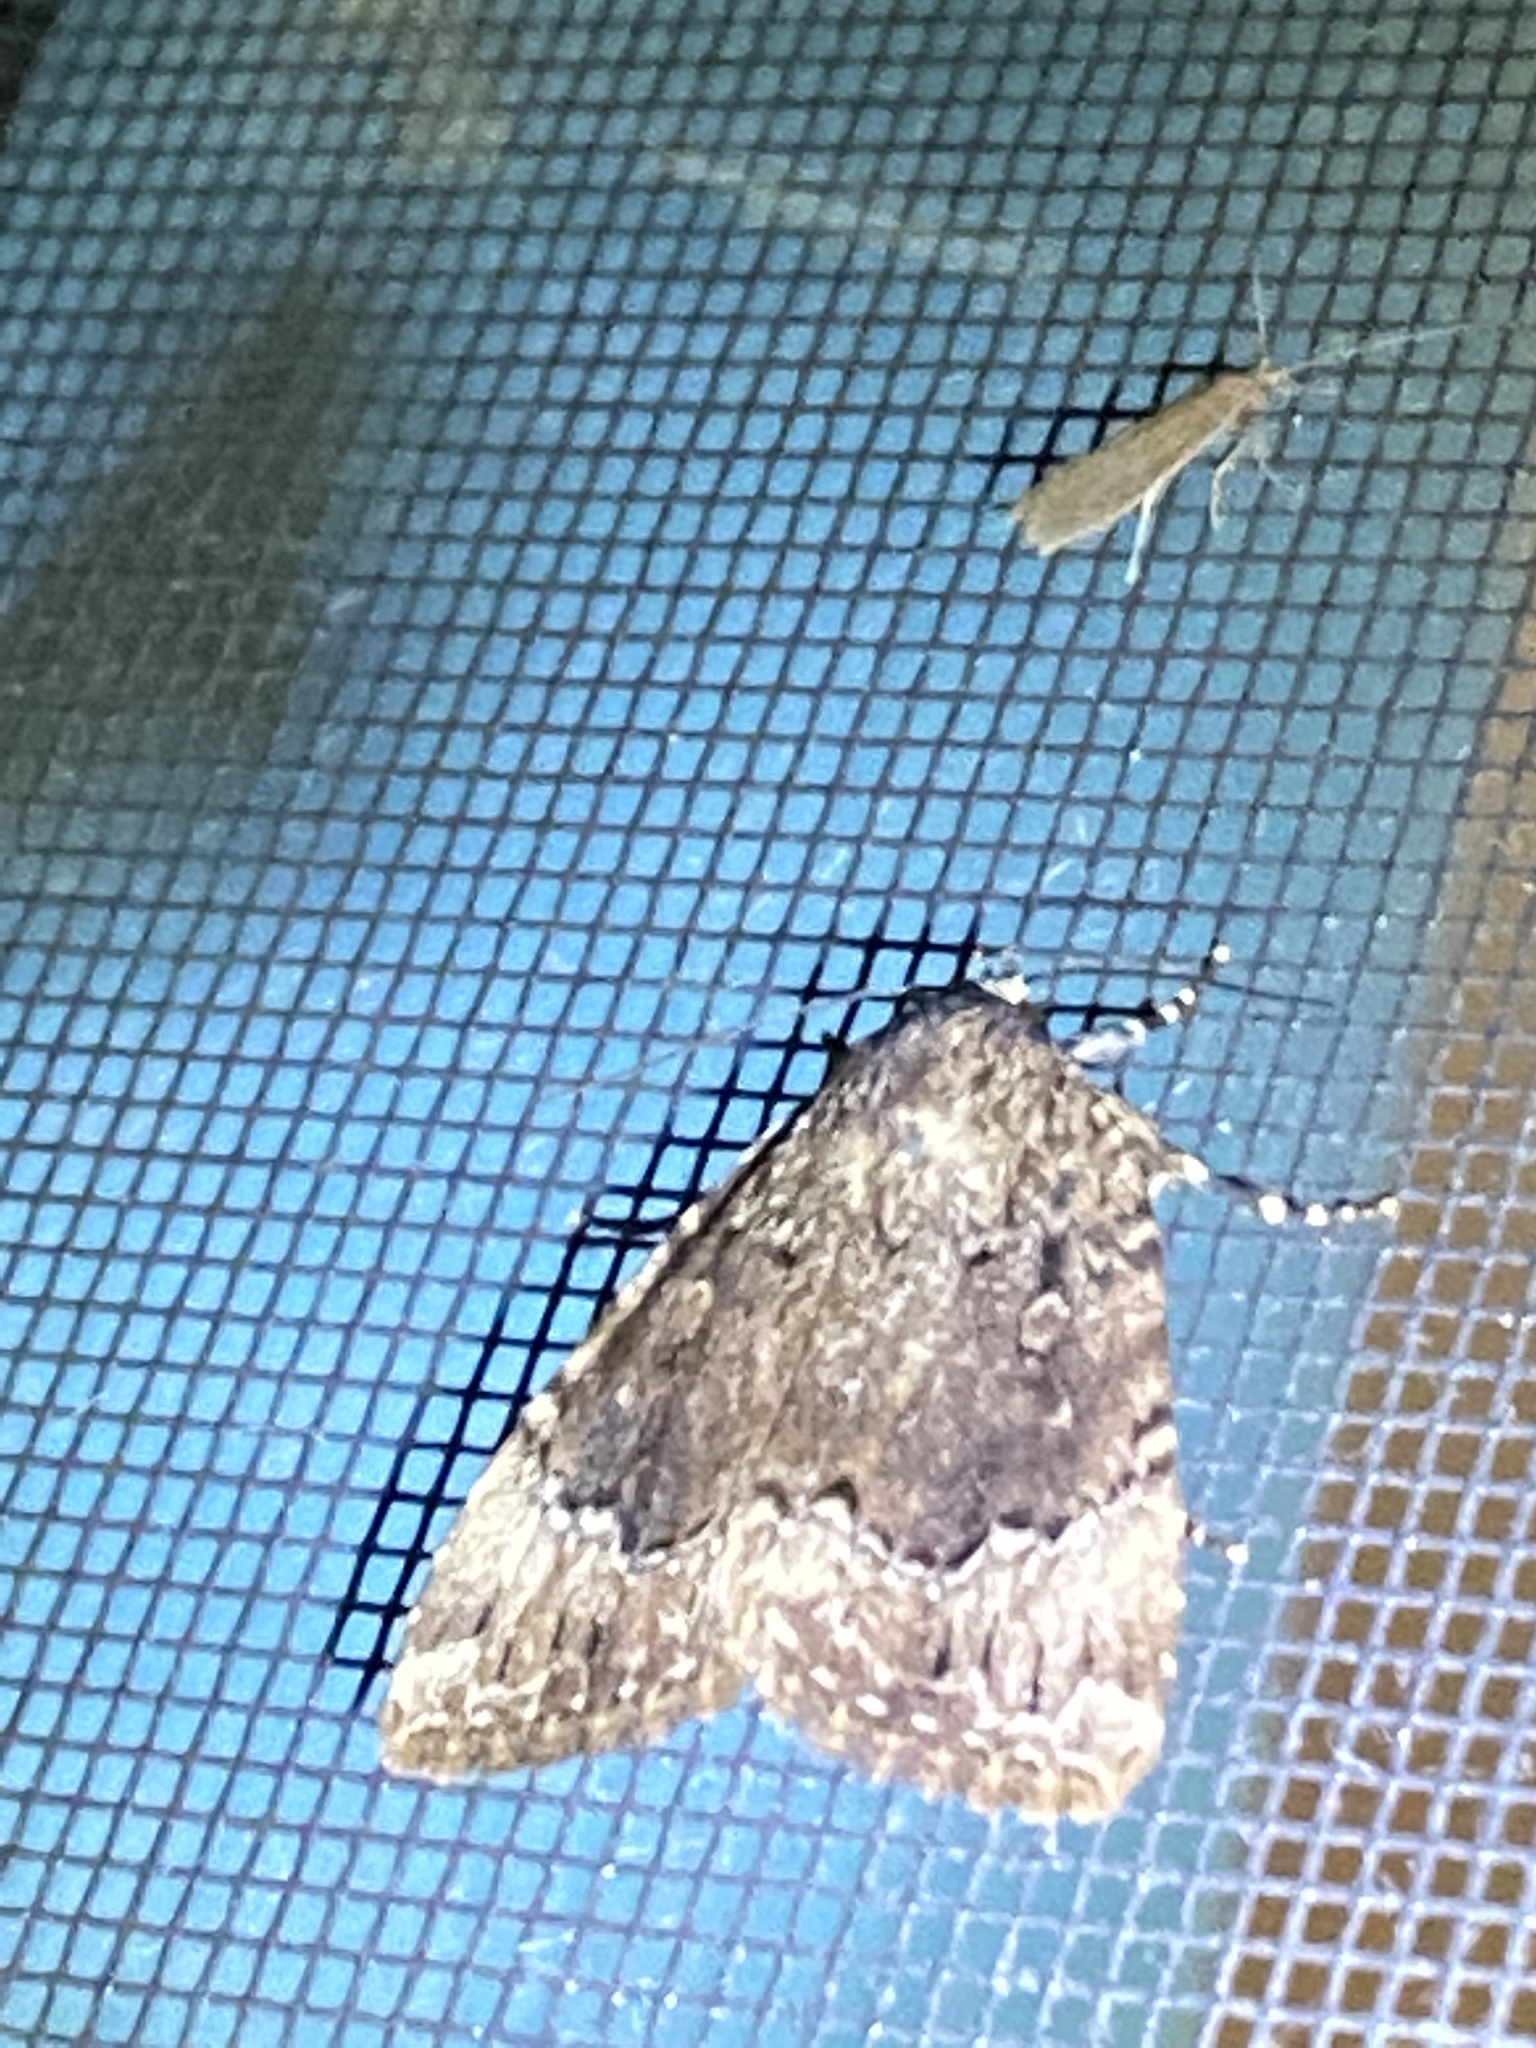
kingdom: Animalia
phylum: Arthropoda
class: Insecta
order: Lepidoptera
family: Erebidae
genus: Catocala
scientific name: Catocala concumbens
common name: Pink underwing
